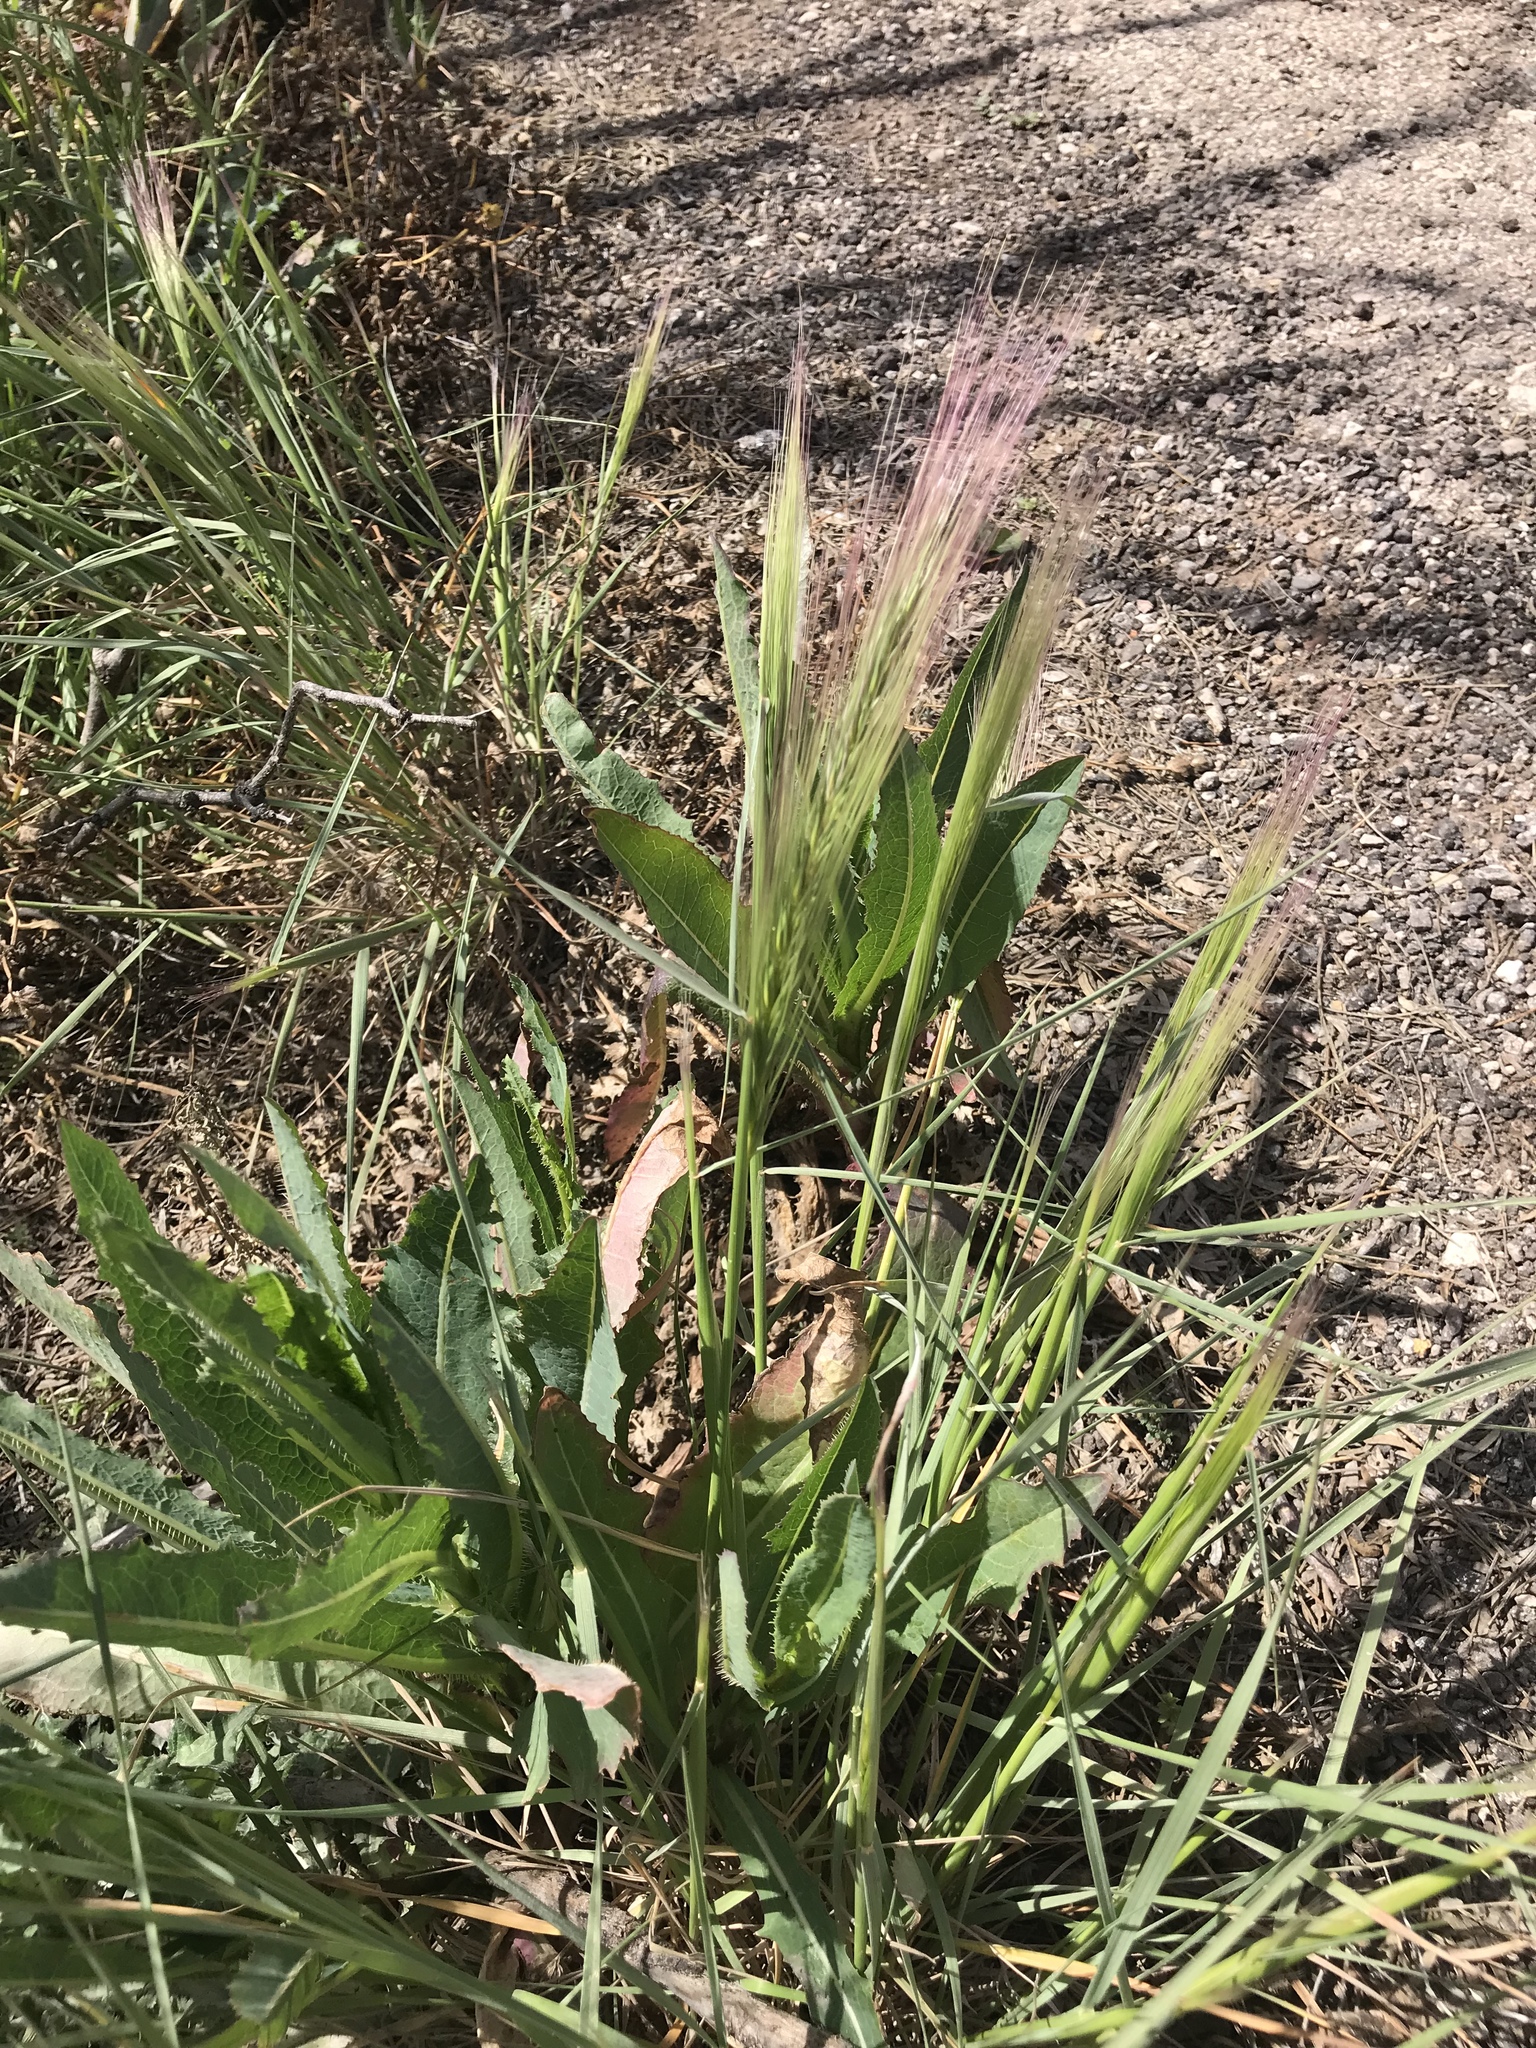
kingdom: Plantae
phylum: Tracheophyta
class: Liliopsida
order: Poales
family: Poaceae
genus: Hordeum
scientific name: Hordeum jubatum
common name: Foxtail barley
